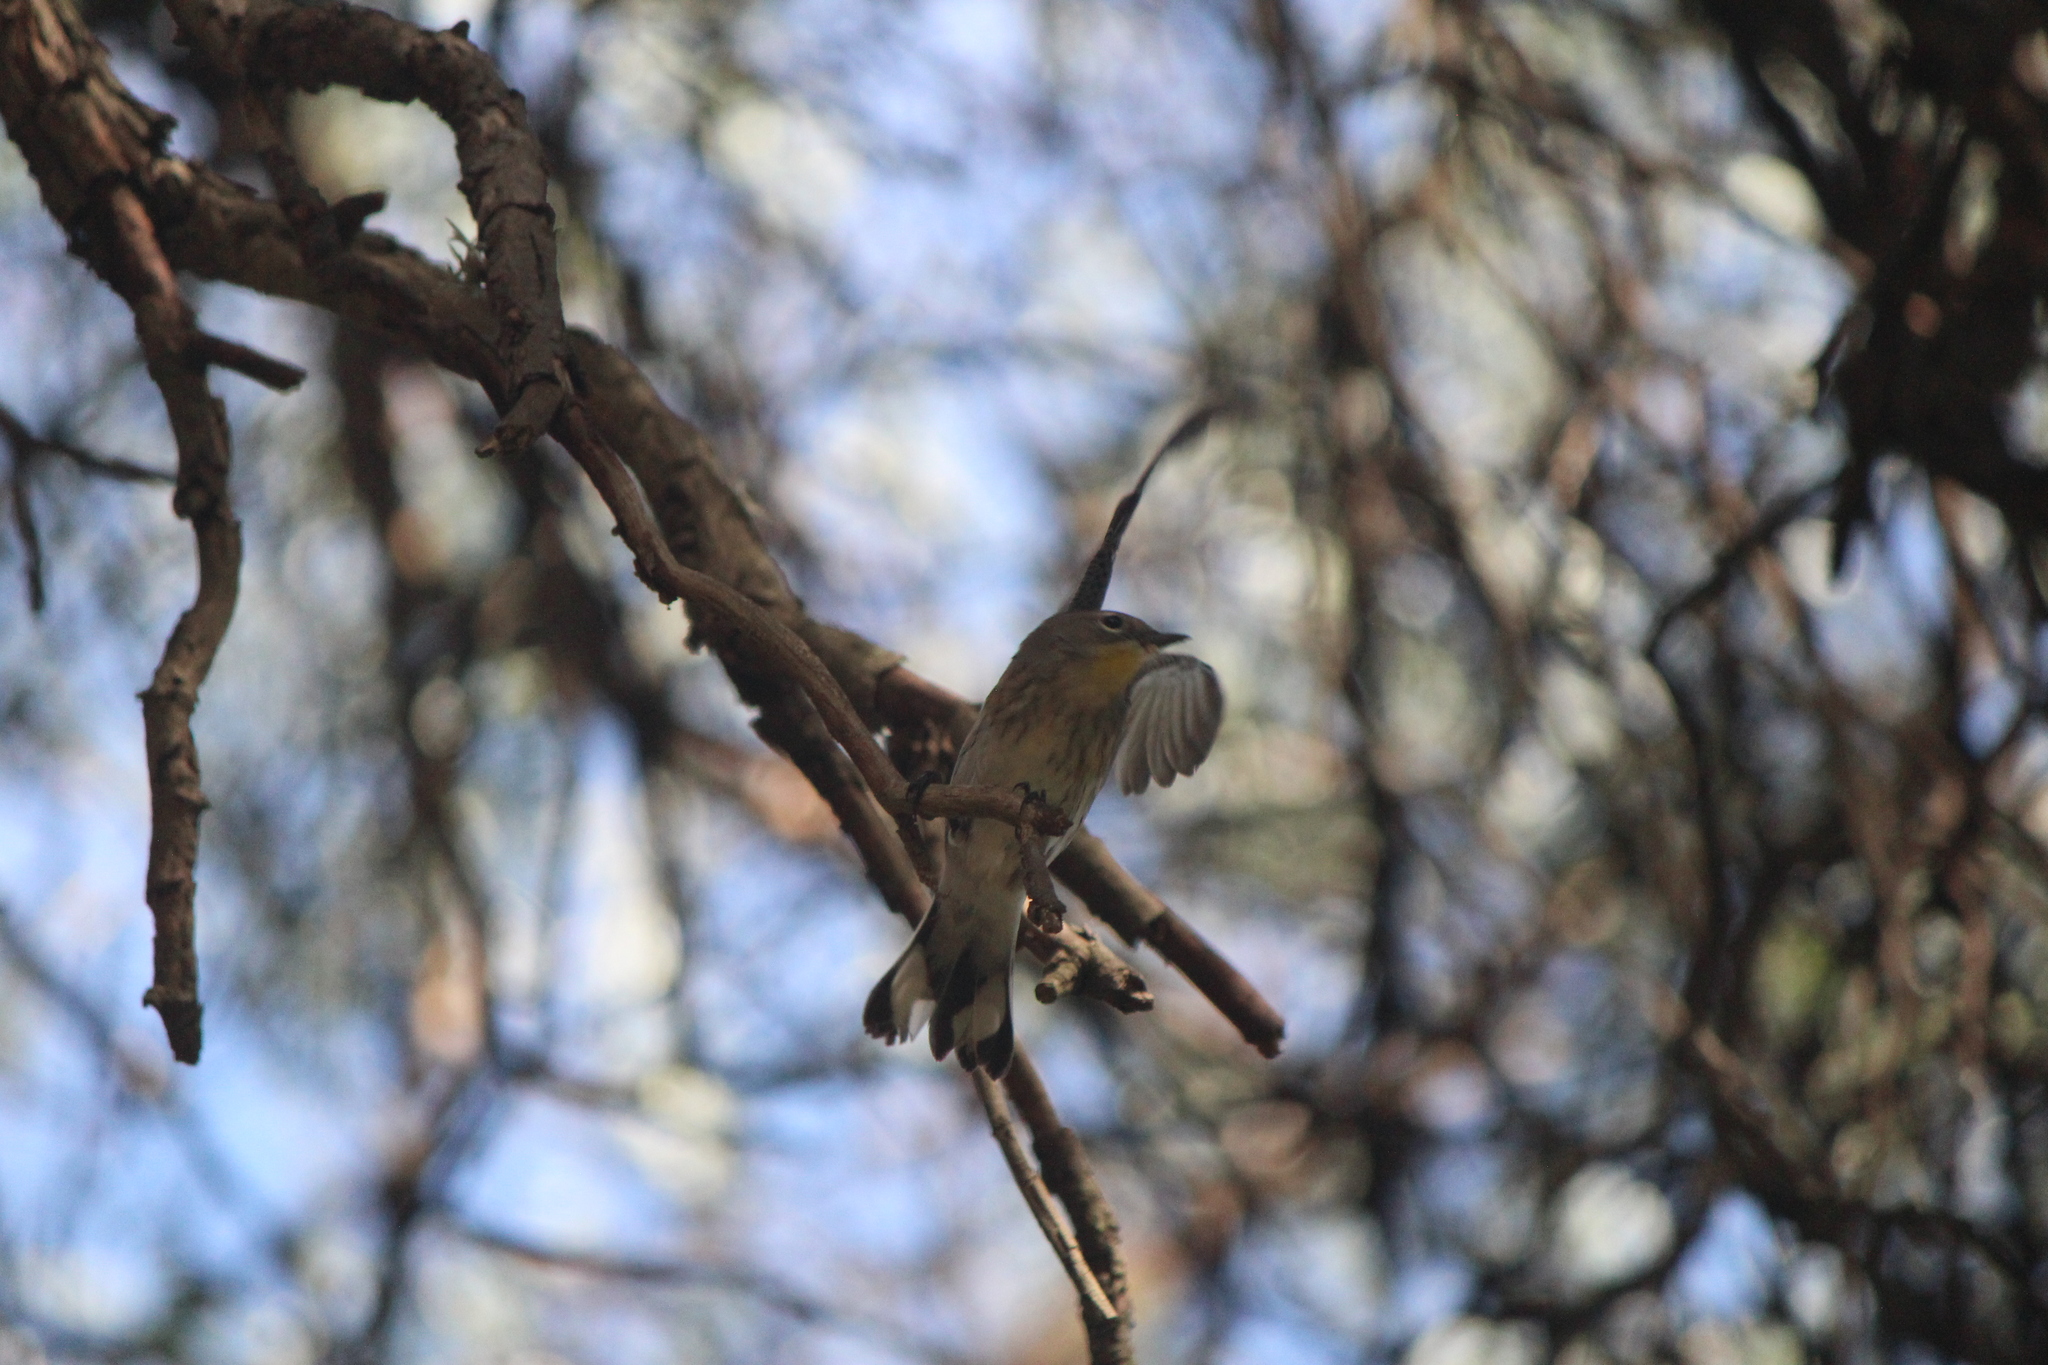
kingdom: Animalia
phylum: Chordata
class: Aves
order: Passeriformes
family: Parulidae
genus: Setophaga
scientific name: Setophaga auduboni
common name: Audubon's warbler
